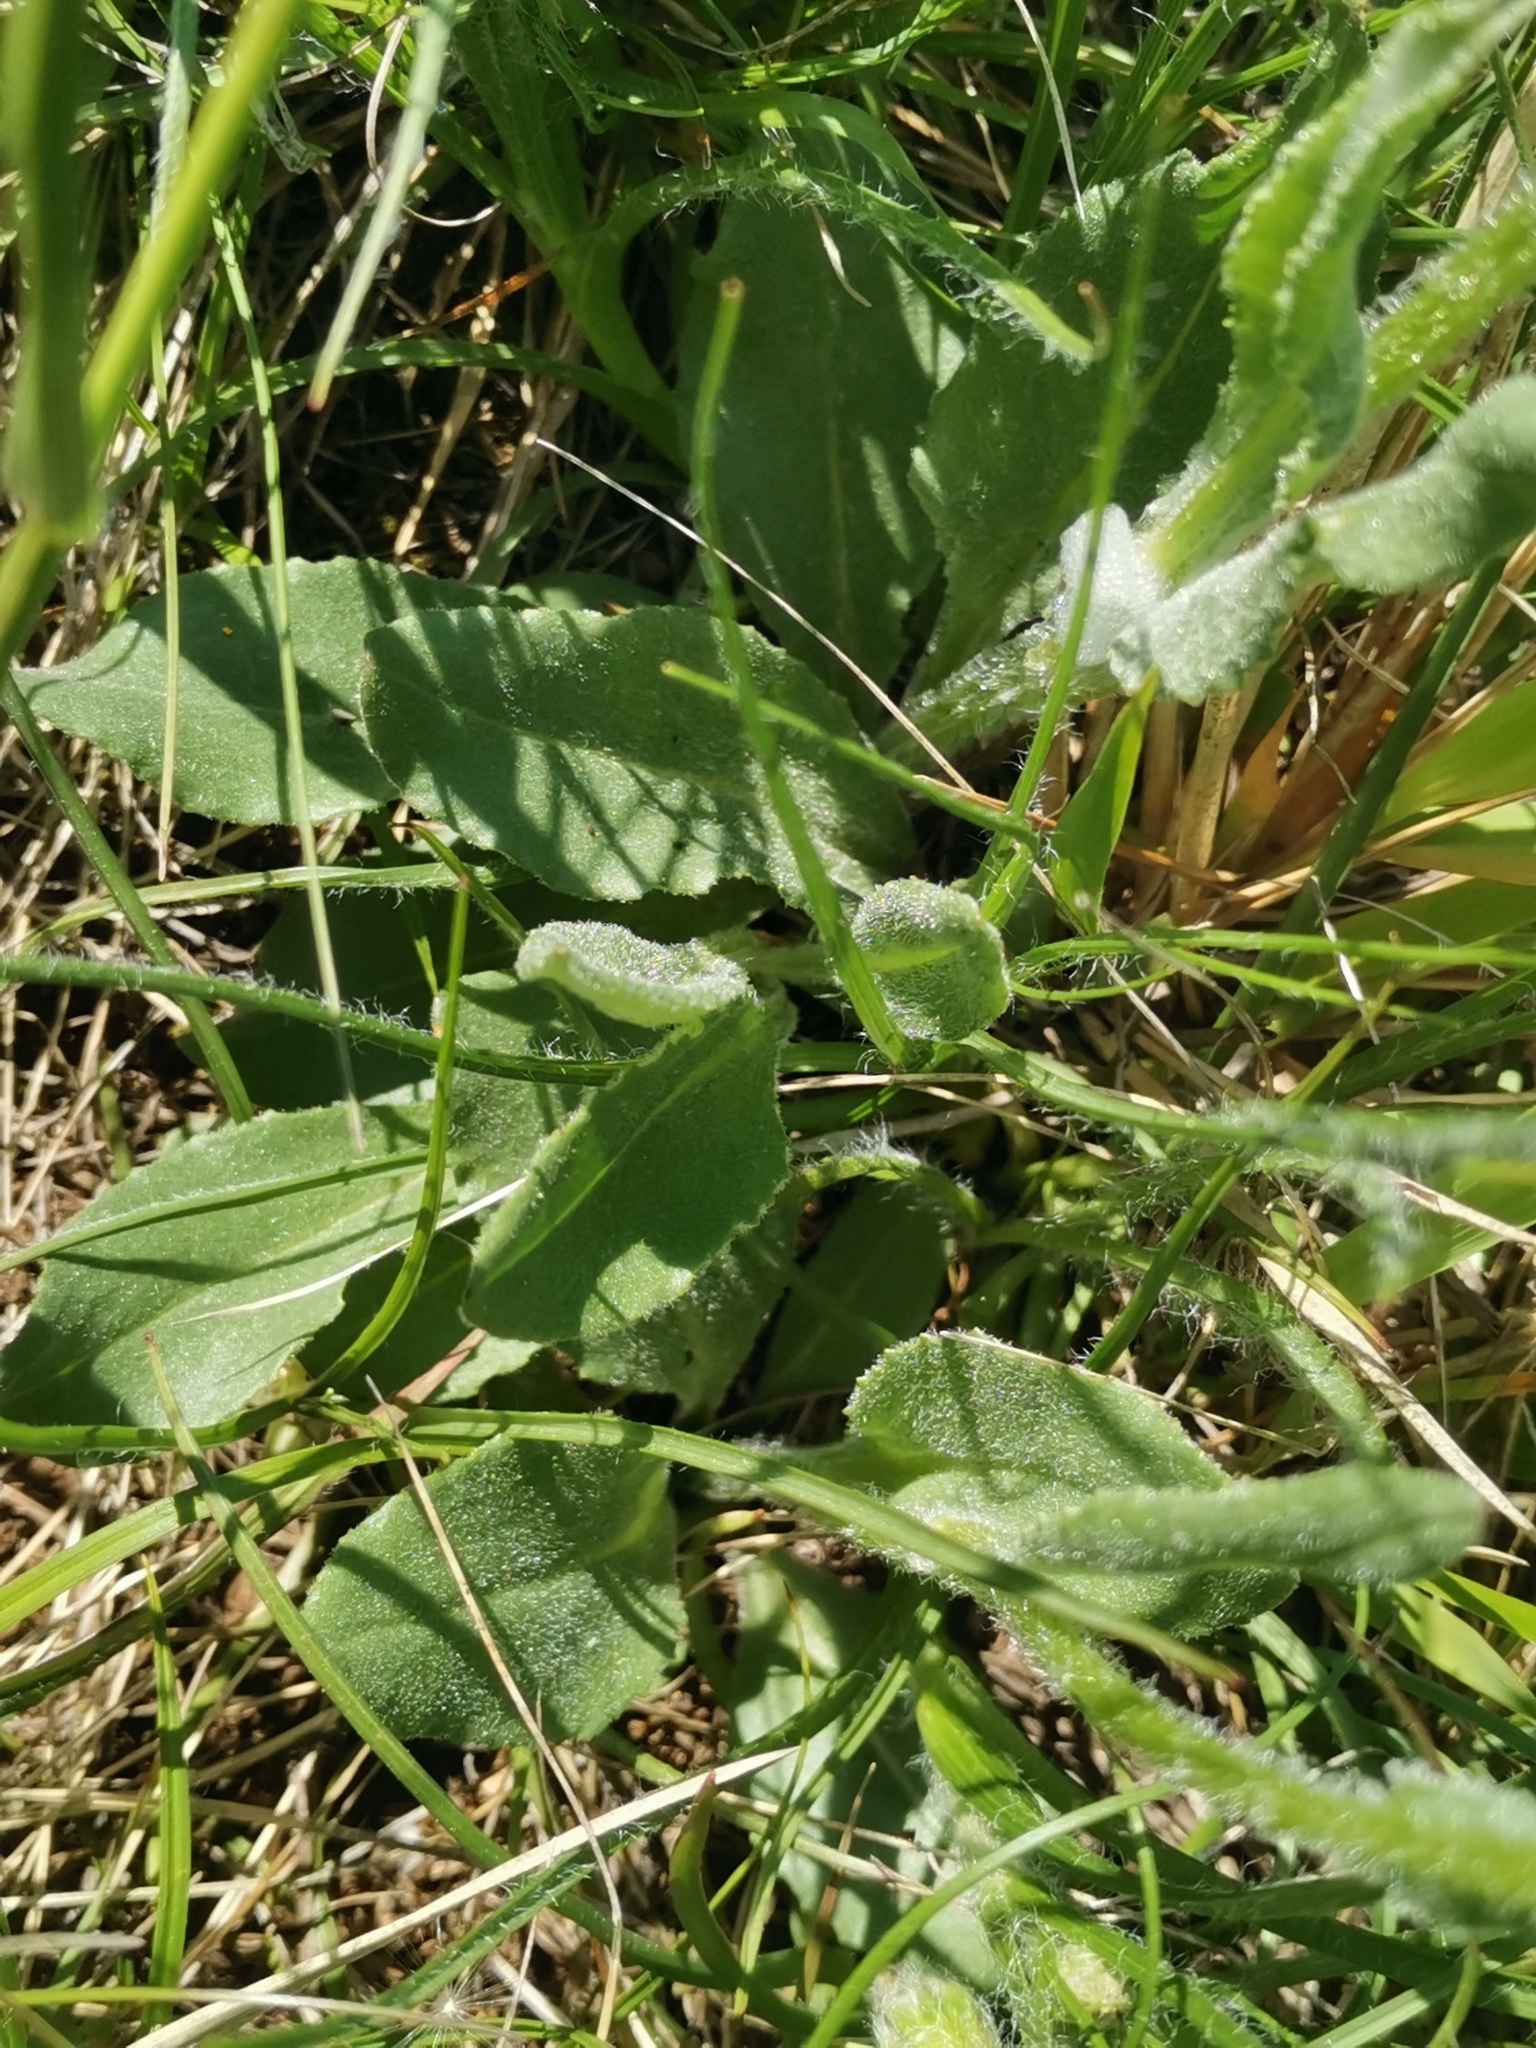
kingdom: Plantae
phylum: Tracheophyta
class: Magnoliopsida
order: Asterales
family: Asteraceae
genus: Senecio
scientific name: Senecio scopolii
